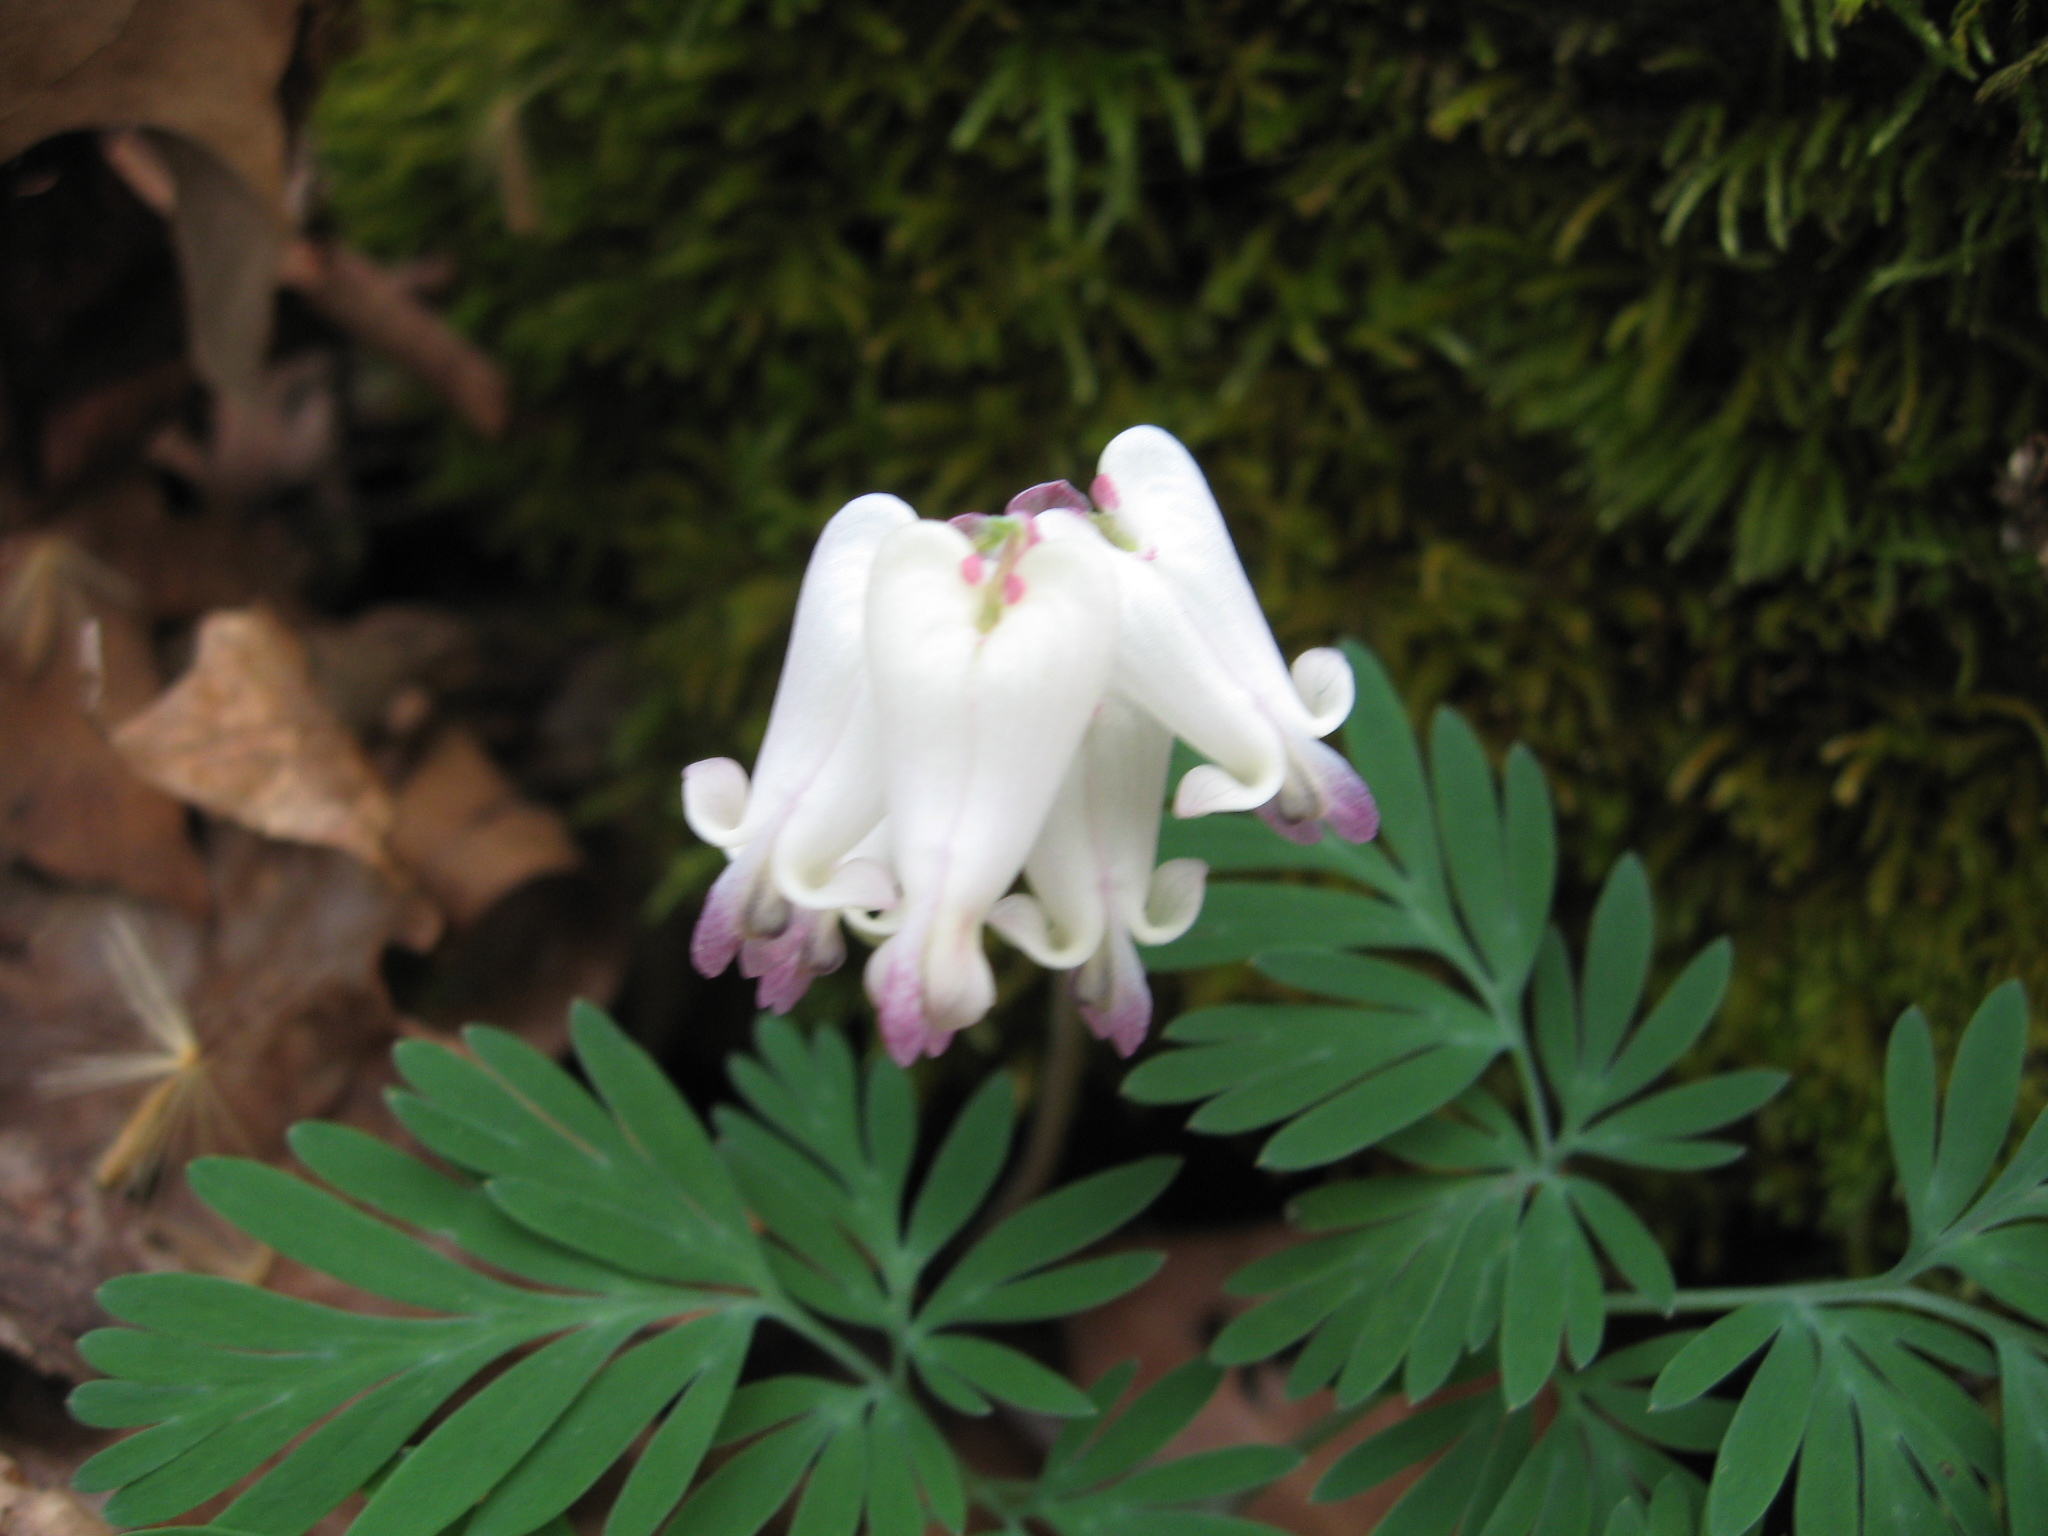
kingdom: Plantae
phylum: Tracheophyta
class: Magnoliopsida
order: Ranunculales
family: Papaveraceae
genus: Dicentra
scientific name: Dicentra canadensis
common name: Squirrel-corn
